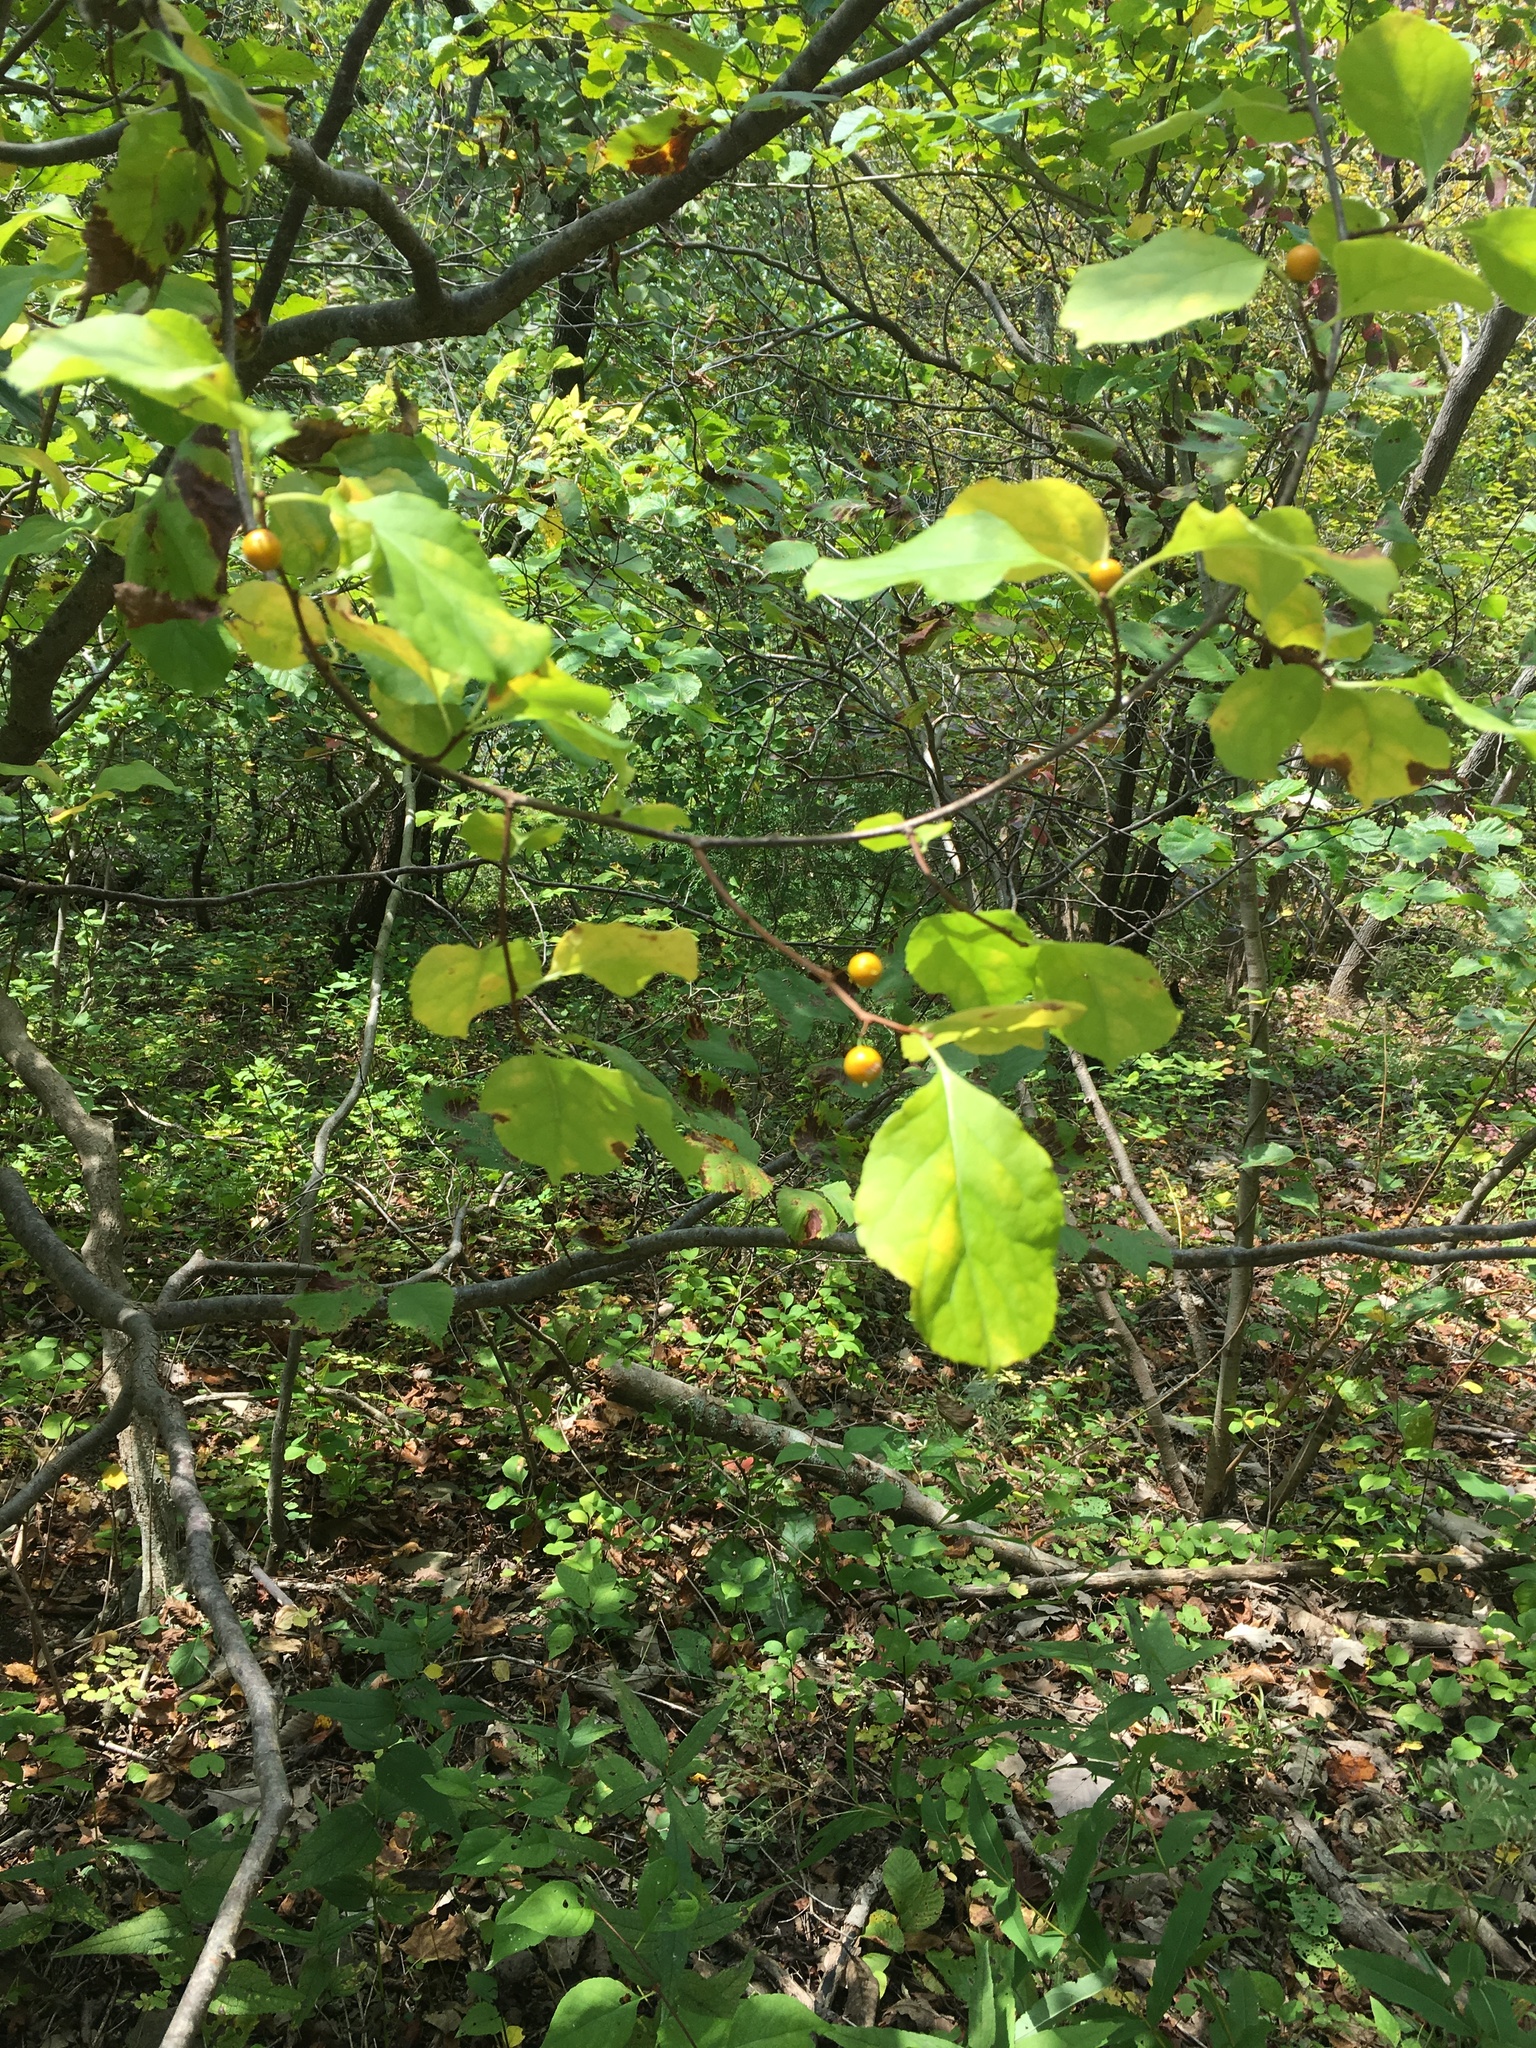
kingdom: Plantae
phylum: Tracheophyta
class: Magnoliopsida
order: Celastrales
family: Celastraceae
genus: Celastrus
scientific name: Celastrus orbiculatus
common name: Oriental bittersweet
